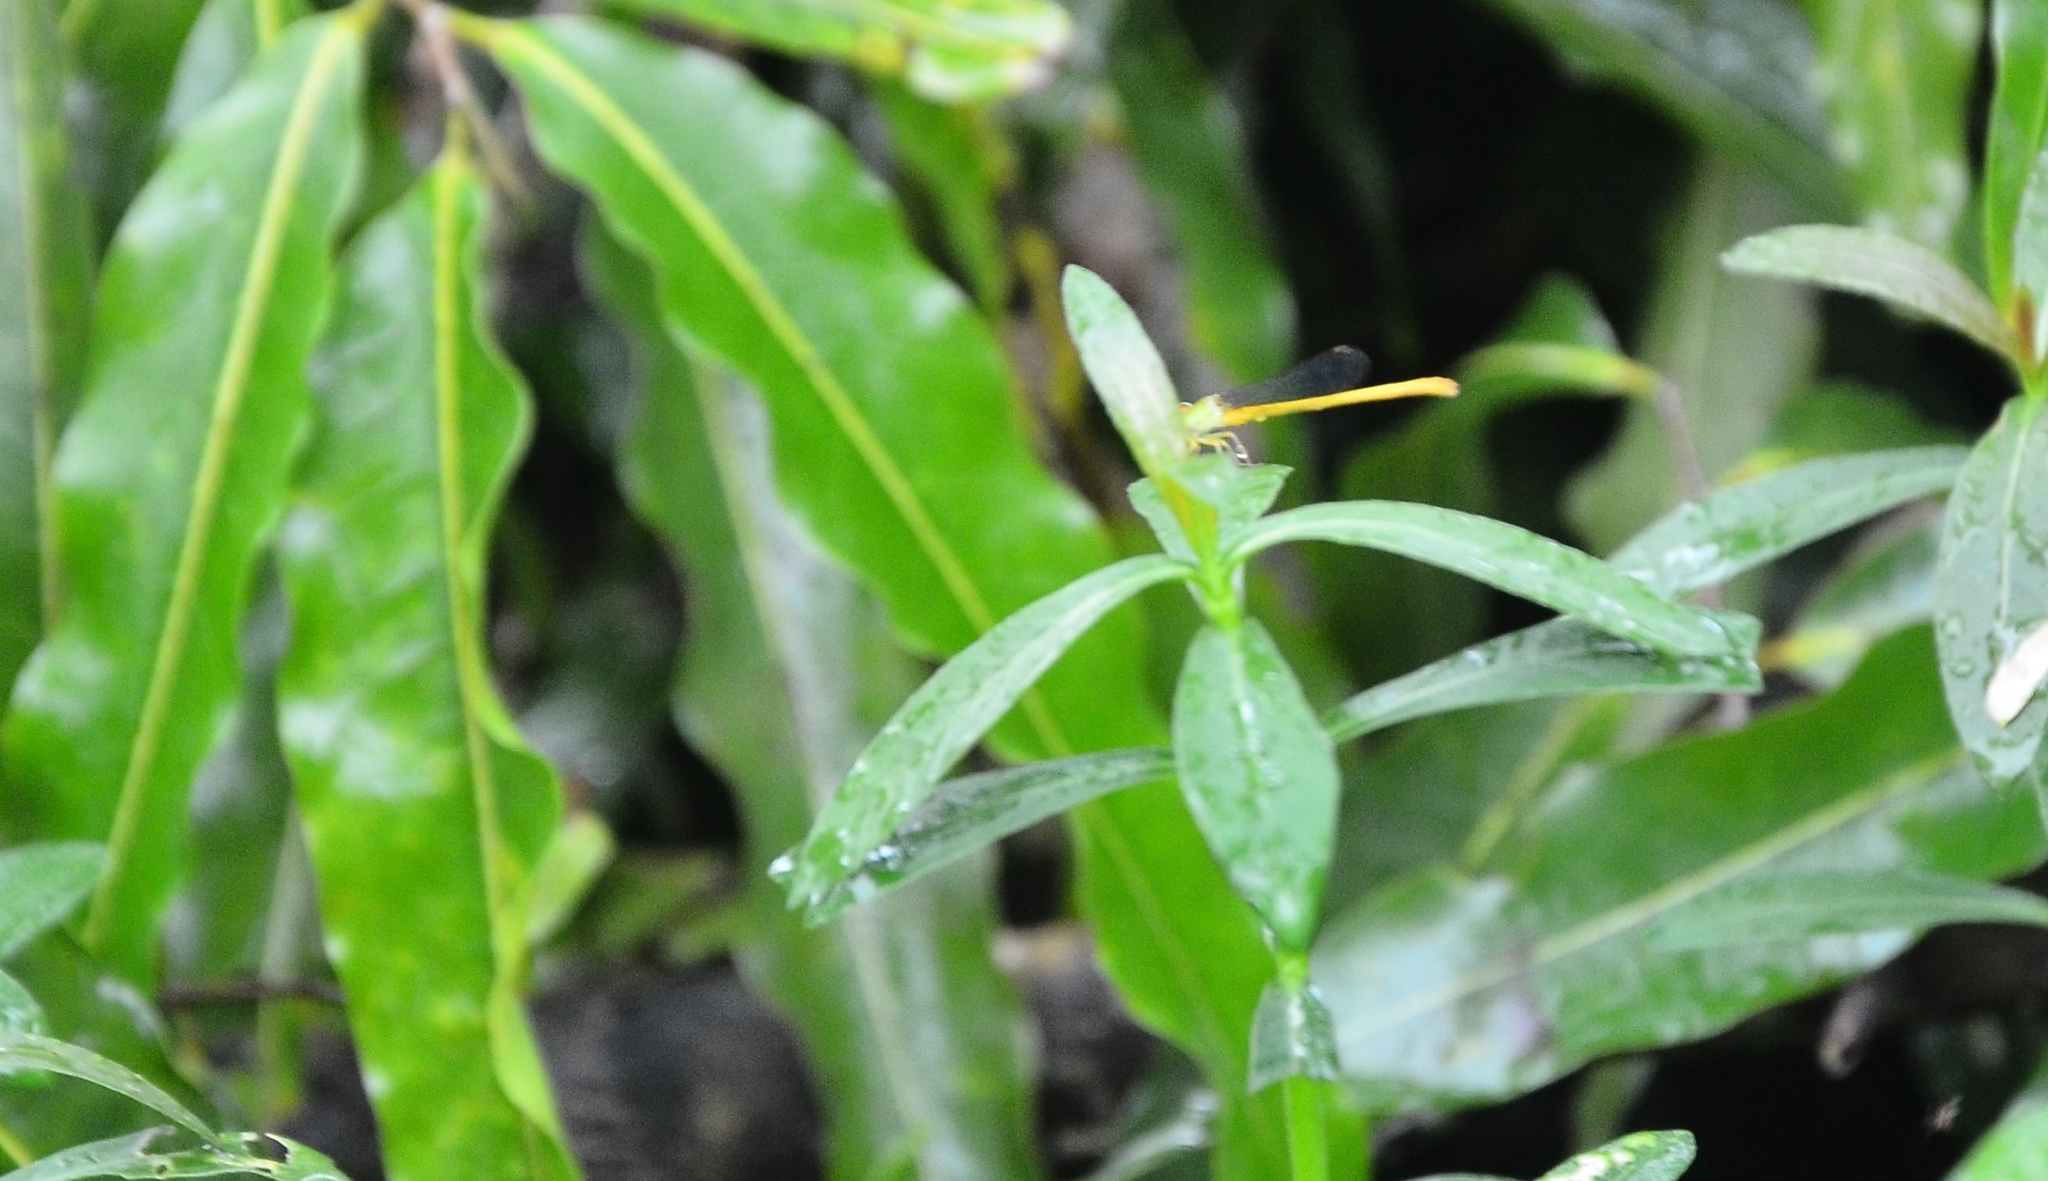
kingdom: Animalia
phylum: Arthropoda
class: Insecta
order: Odonata
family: Coenagrionidae
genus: Ceriagrion
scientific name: Ceriagrion coromandelianum
